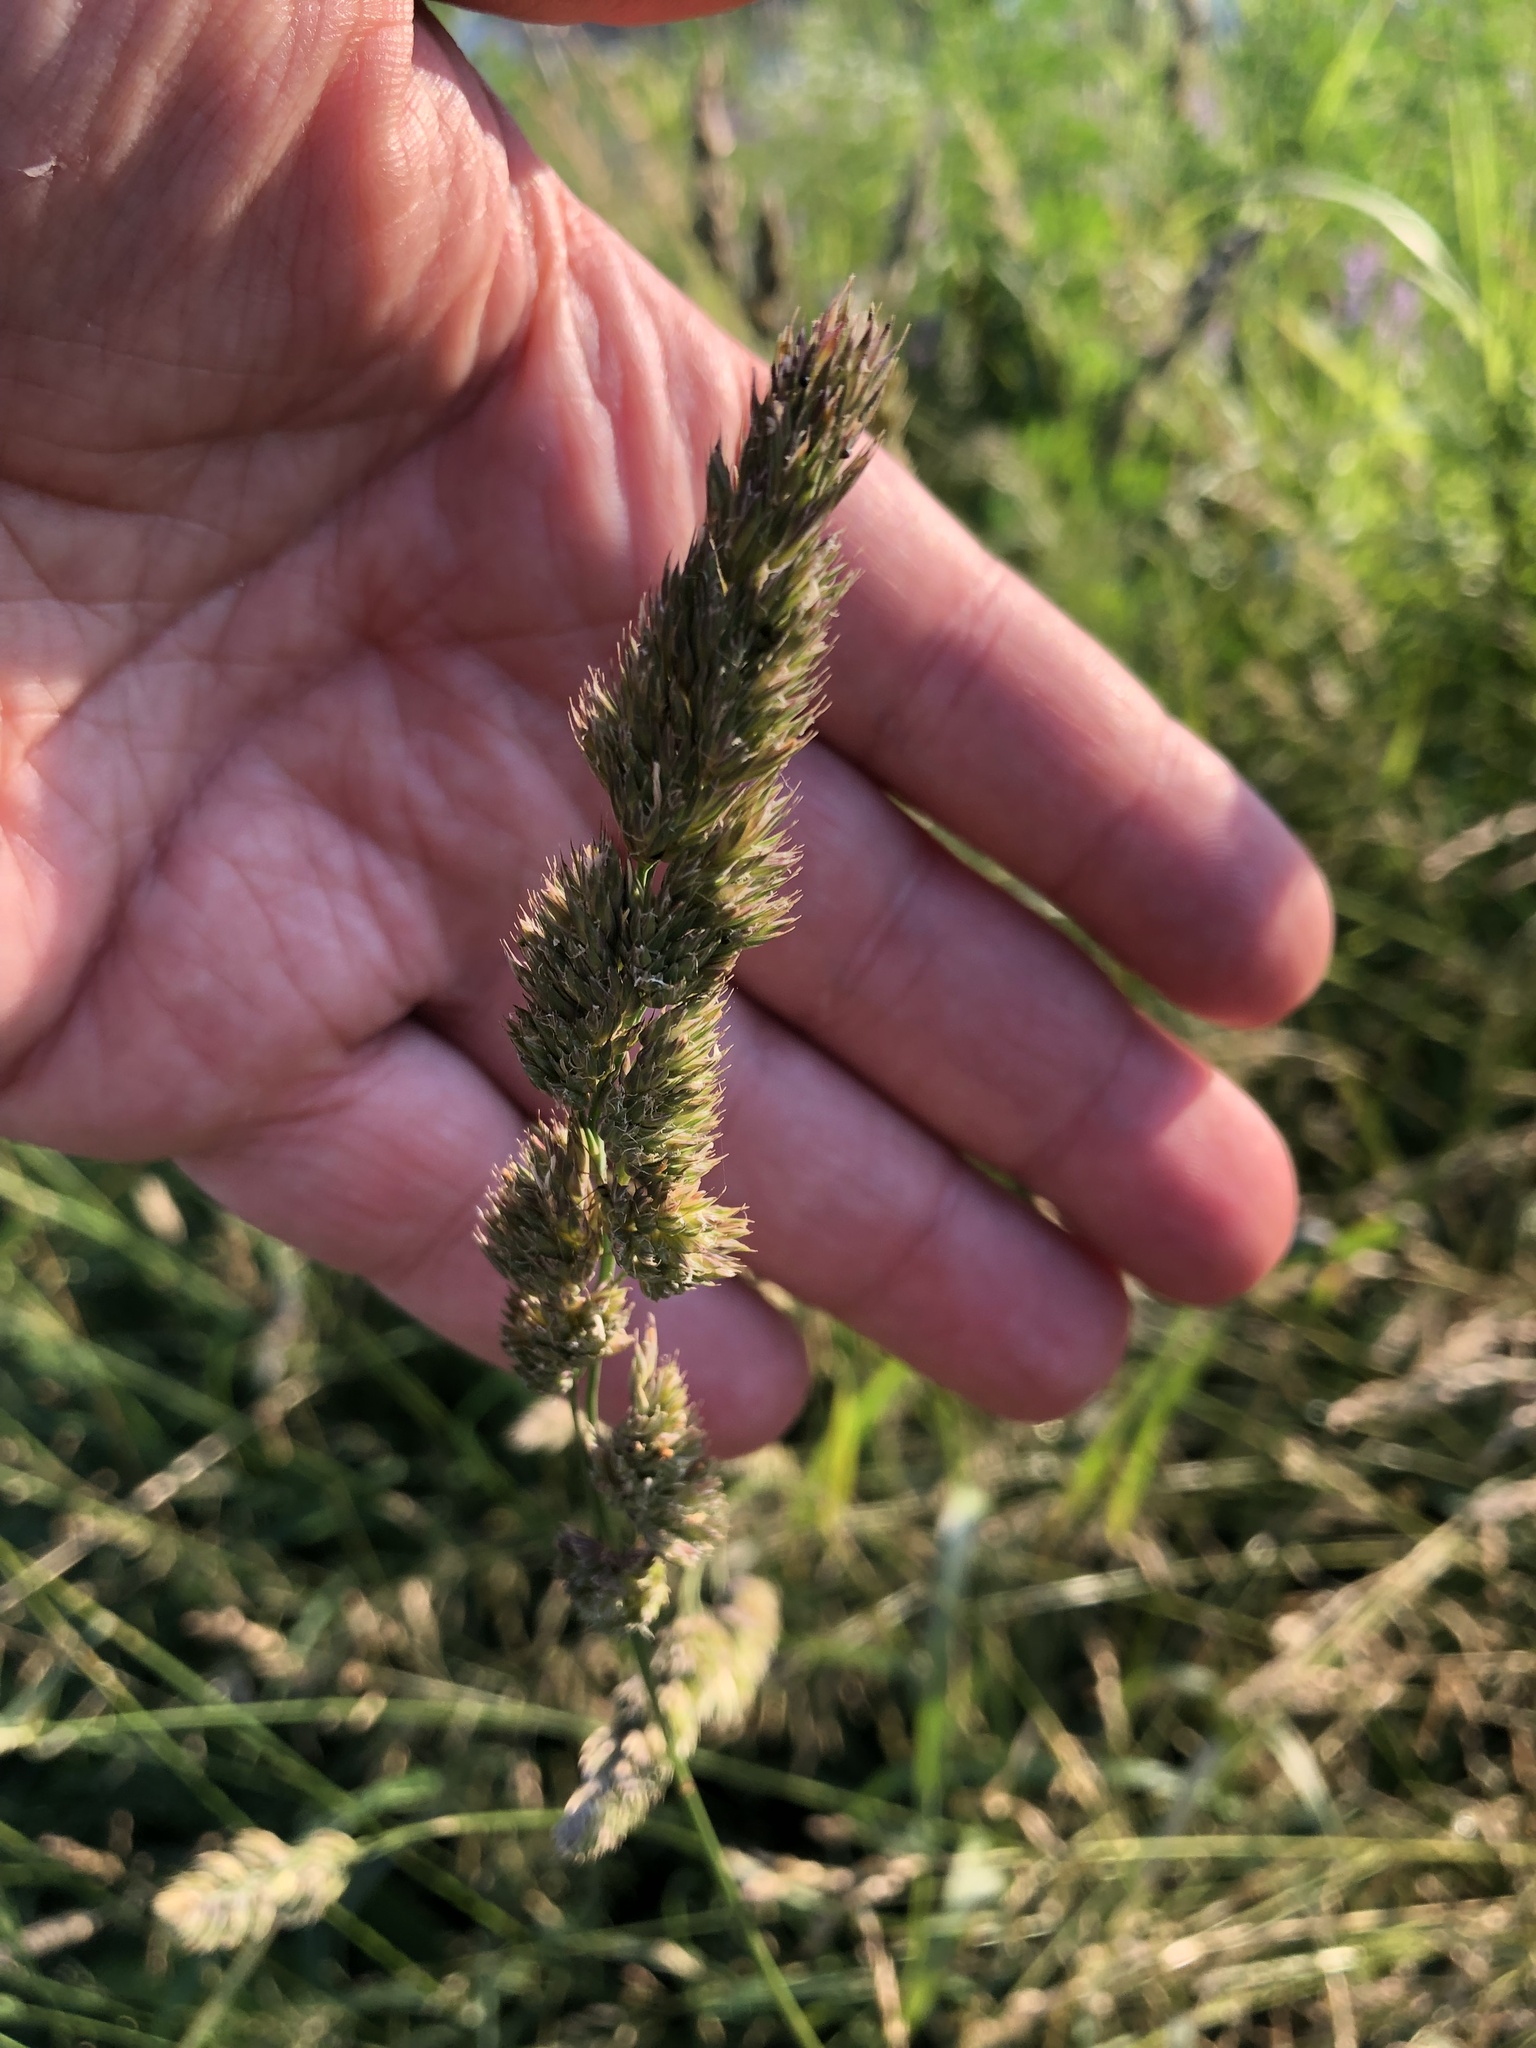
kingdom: Plantae
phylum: Tracheophyta
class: Liliopsida
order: Poales
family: Poaceae
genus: Dactylis
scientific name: Dactylis glomerata
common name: Orchardgrass
